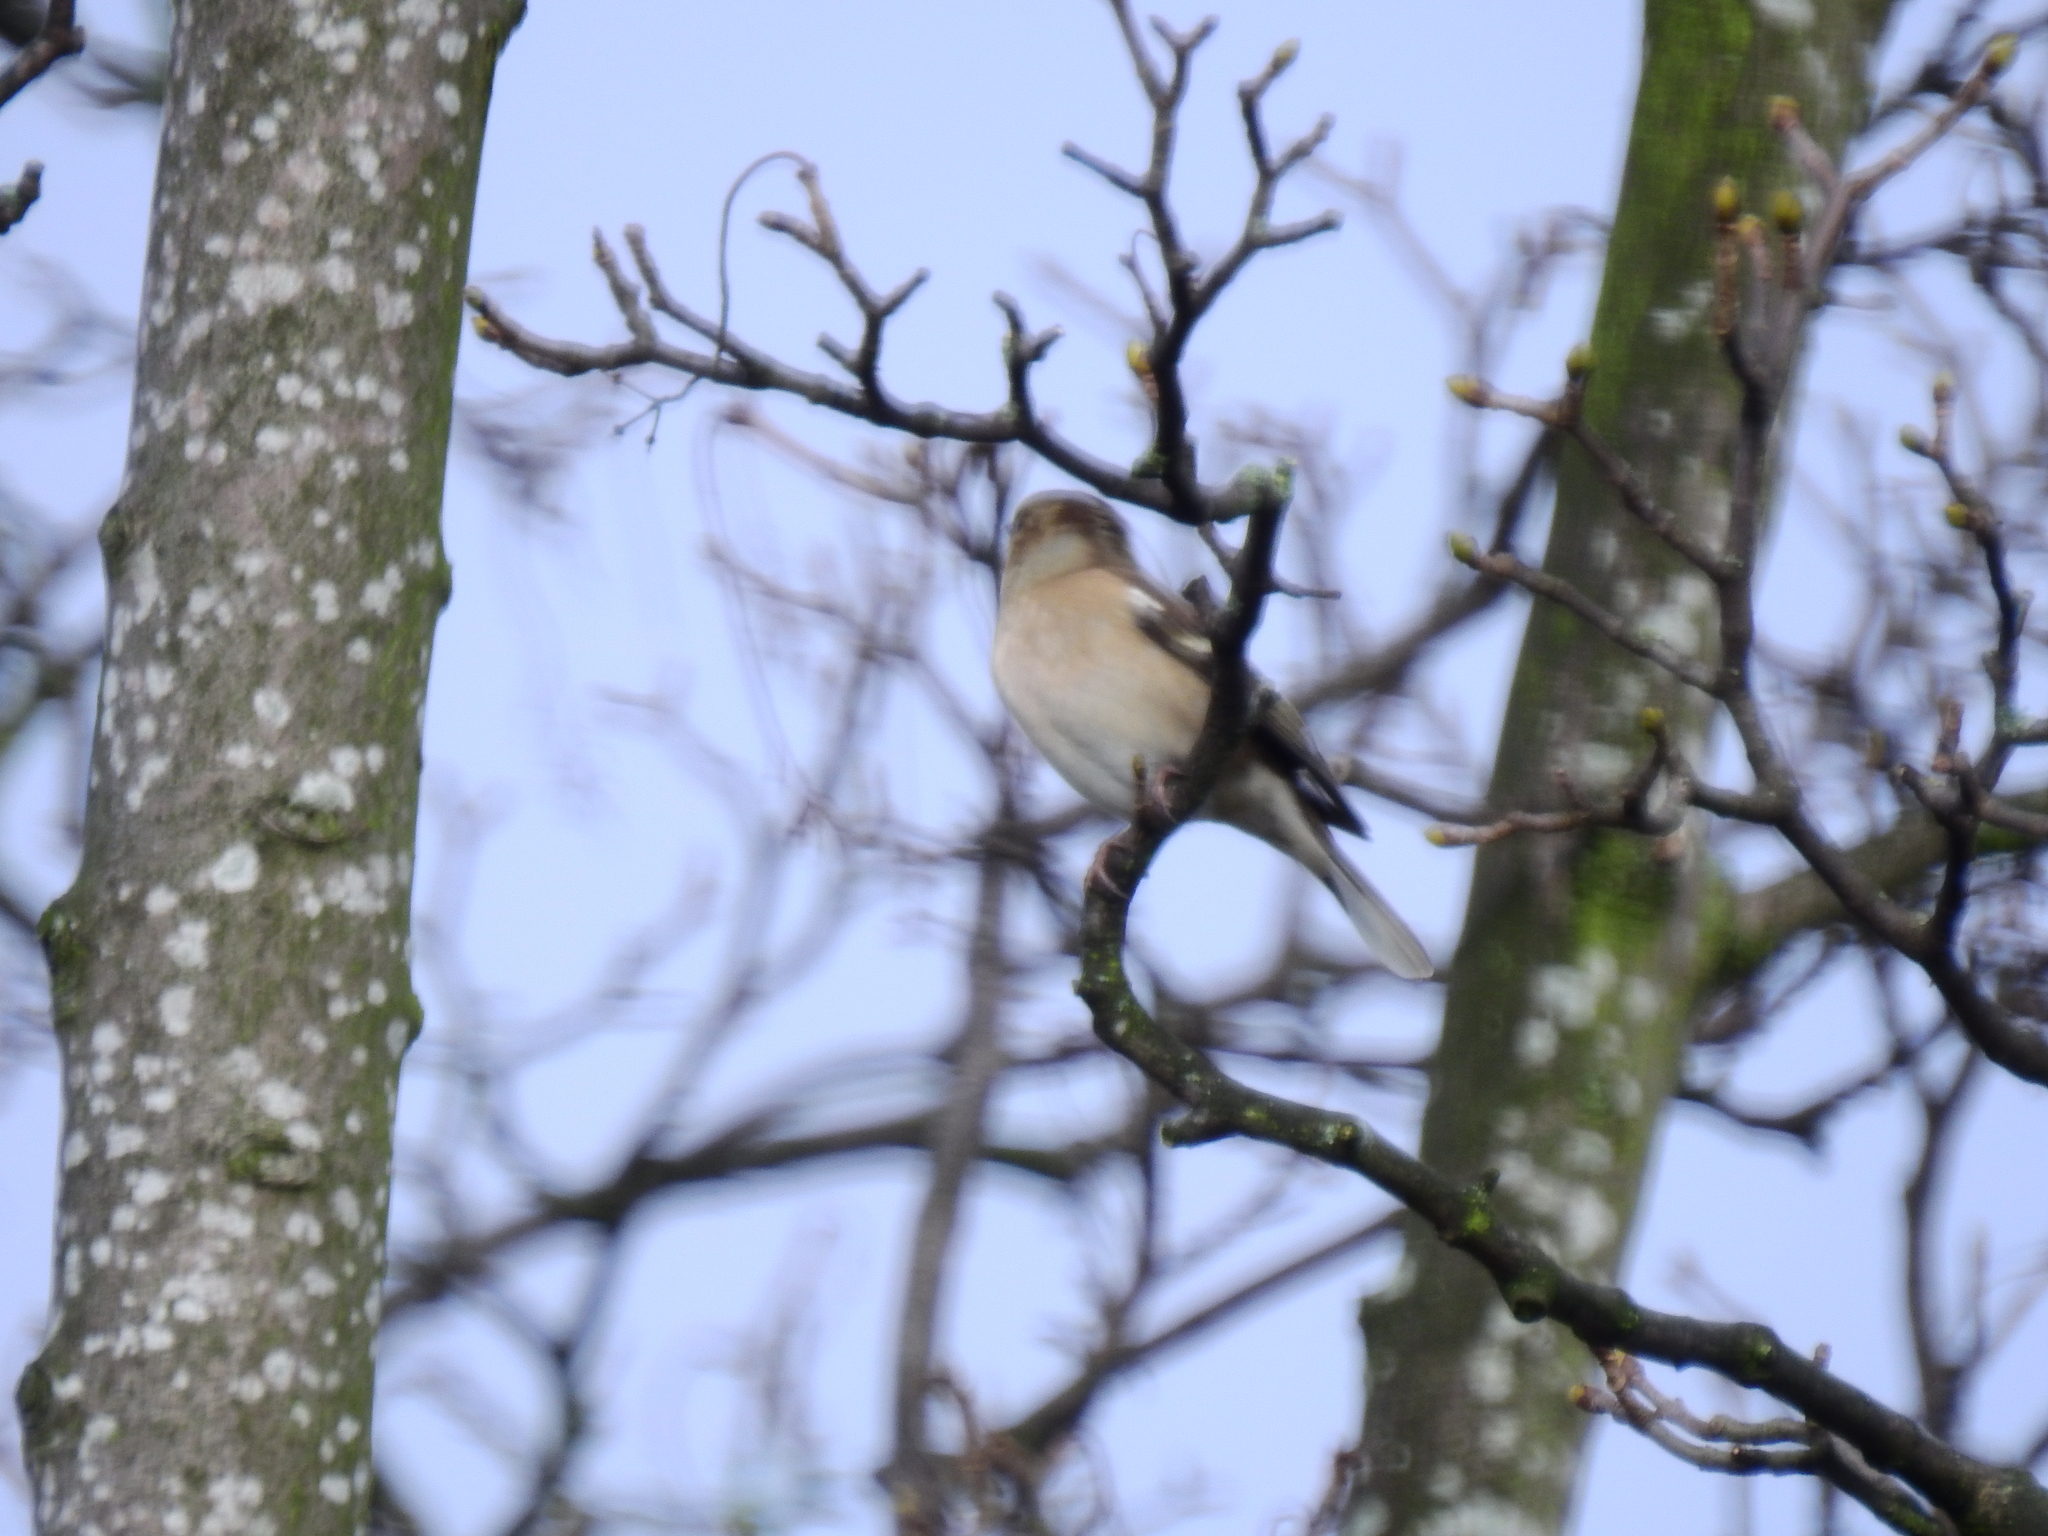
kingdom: Animalia
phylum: Chordata
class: Aves
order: Passeriformes
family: Fringillidae
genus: Fringilla
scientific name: Fringilla coelebs
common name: Common chaffinch
